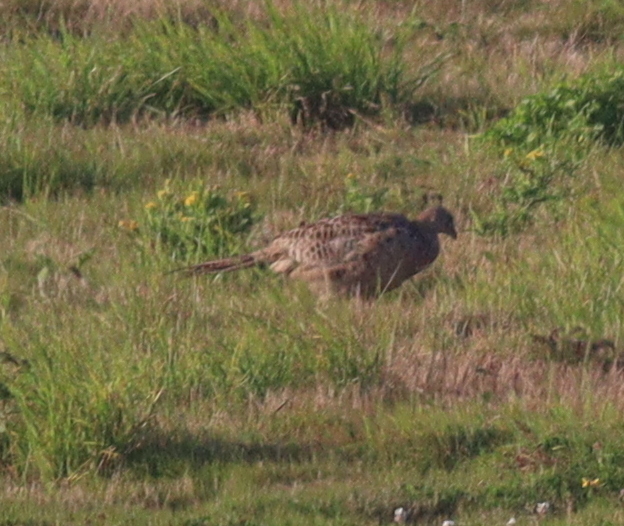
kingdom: Animalia
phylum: Chordata
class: Aves
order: Galliformes
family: Phasianidae
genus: Phasianus
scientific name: Phasianus colchicus
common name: Common pheasant
